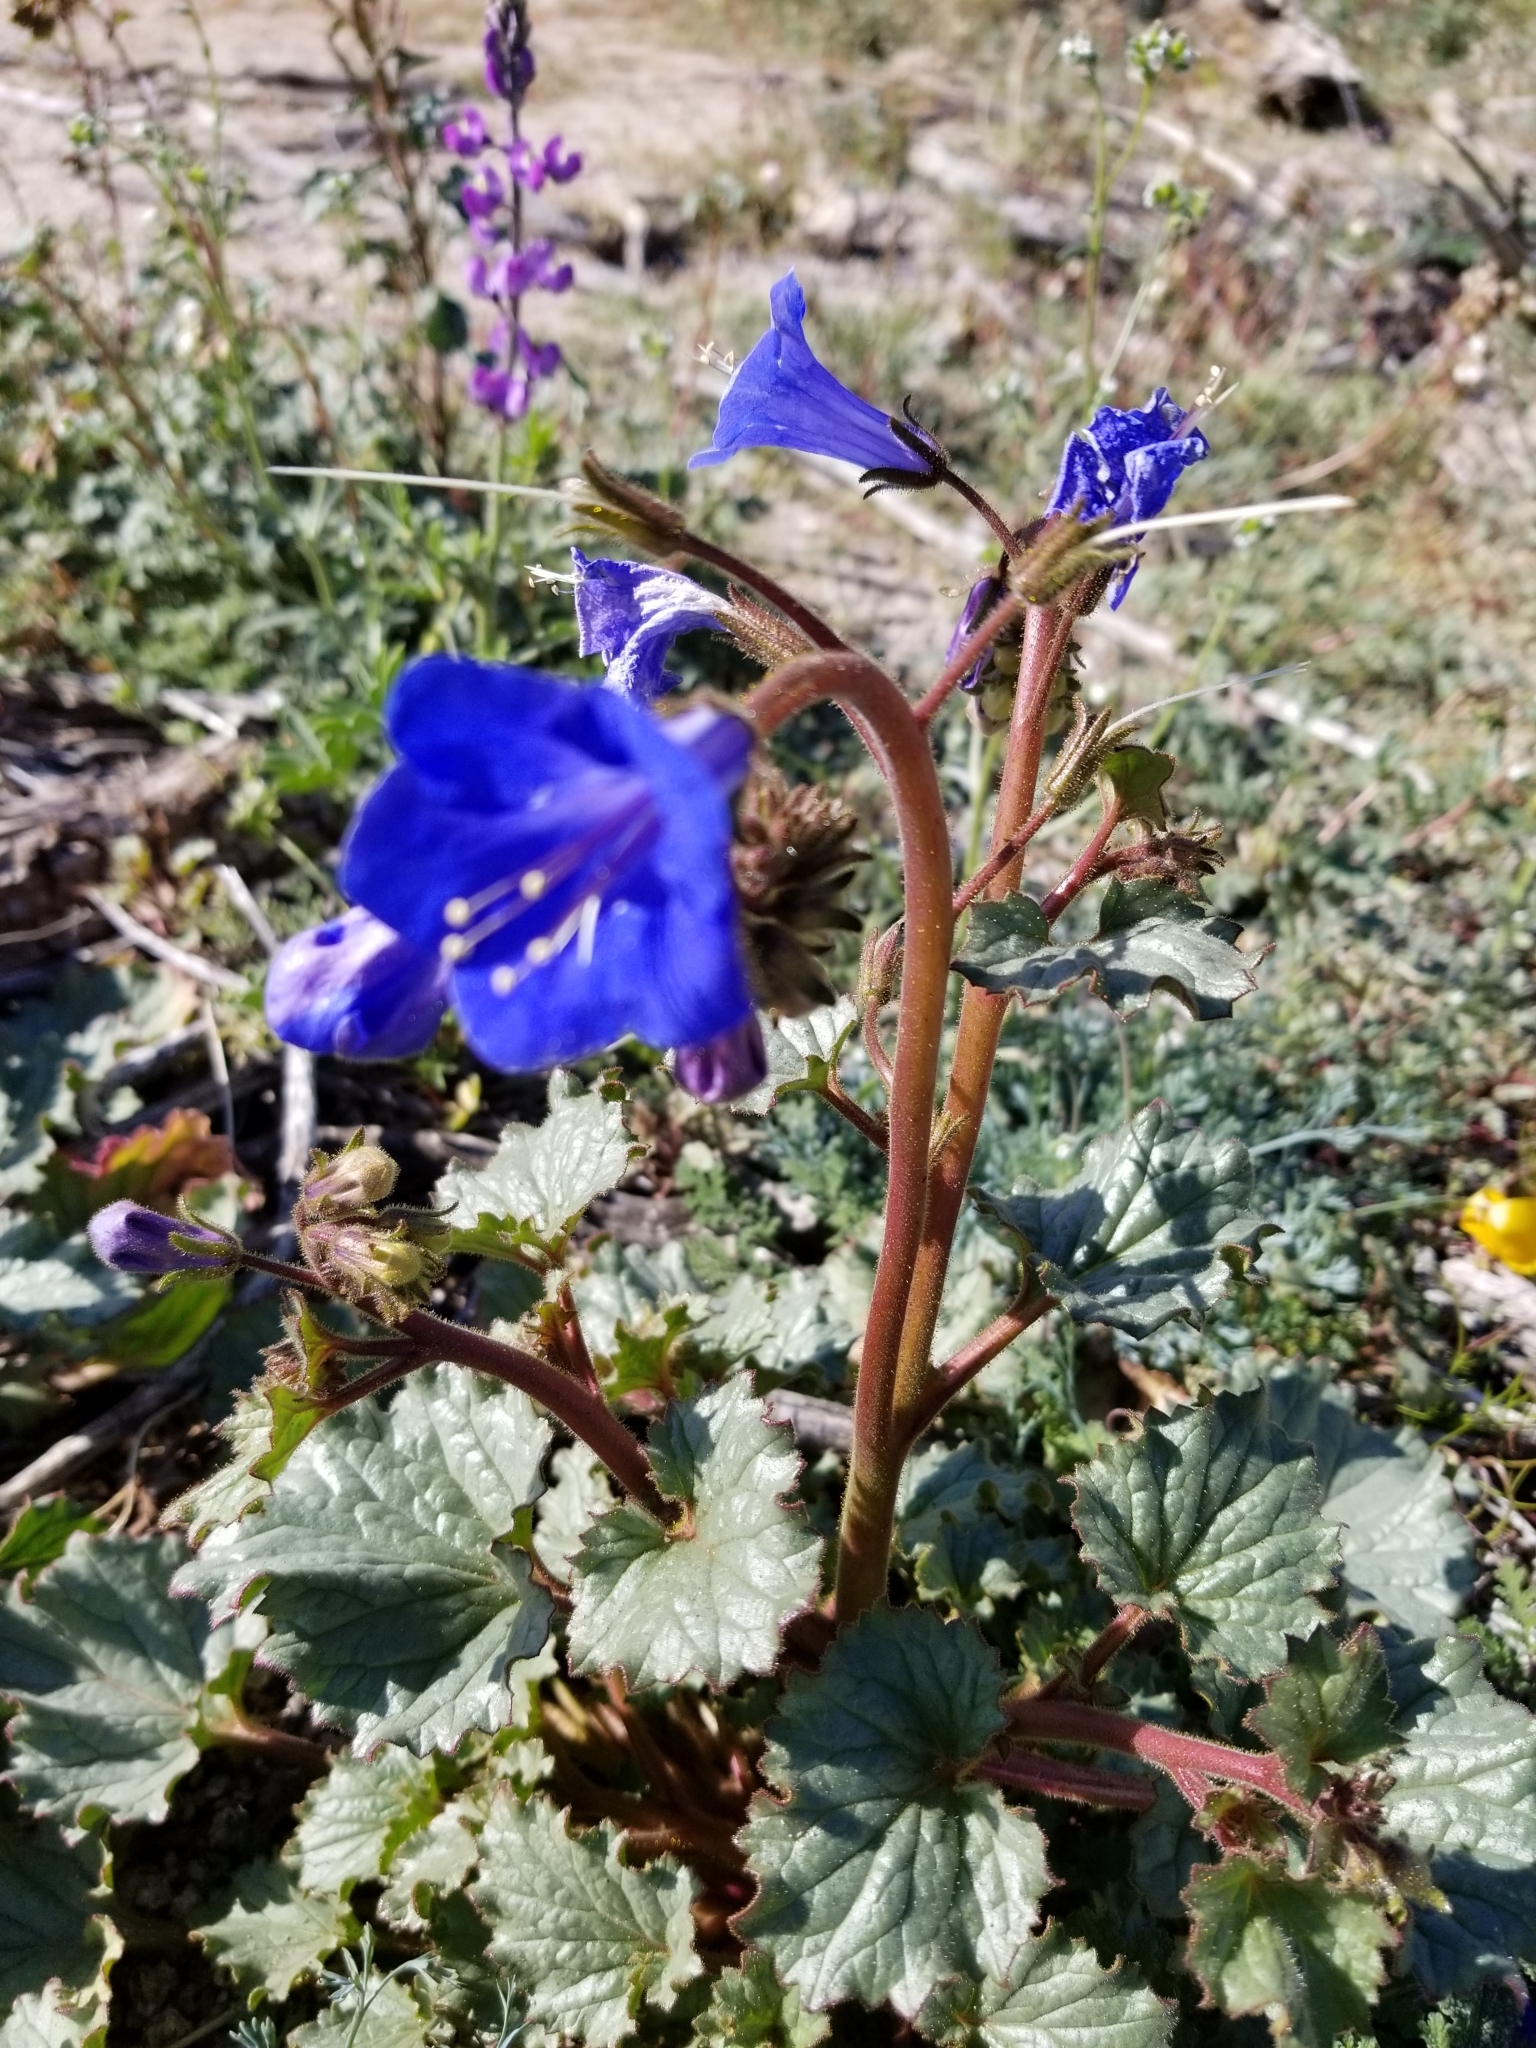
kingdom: Plantae
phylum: Tracheophyta
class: Magnoliopsida
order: Boraginales
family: Hydrophyllaceae
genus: Phacelia
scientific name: Phacelia campanularia
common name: California bluebell
